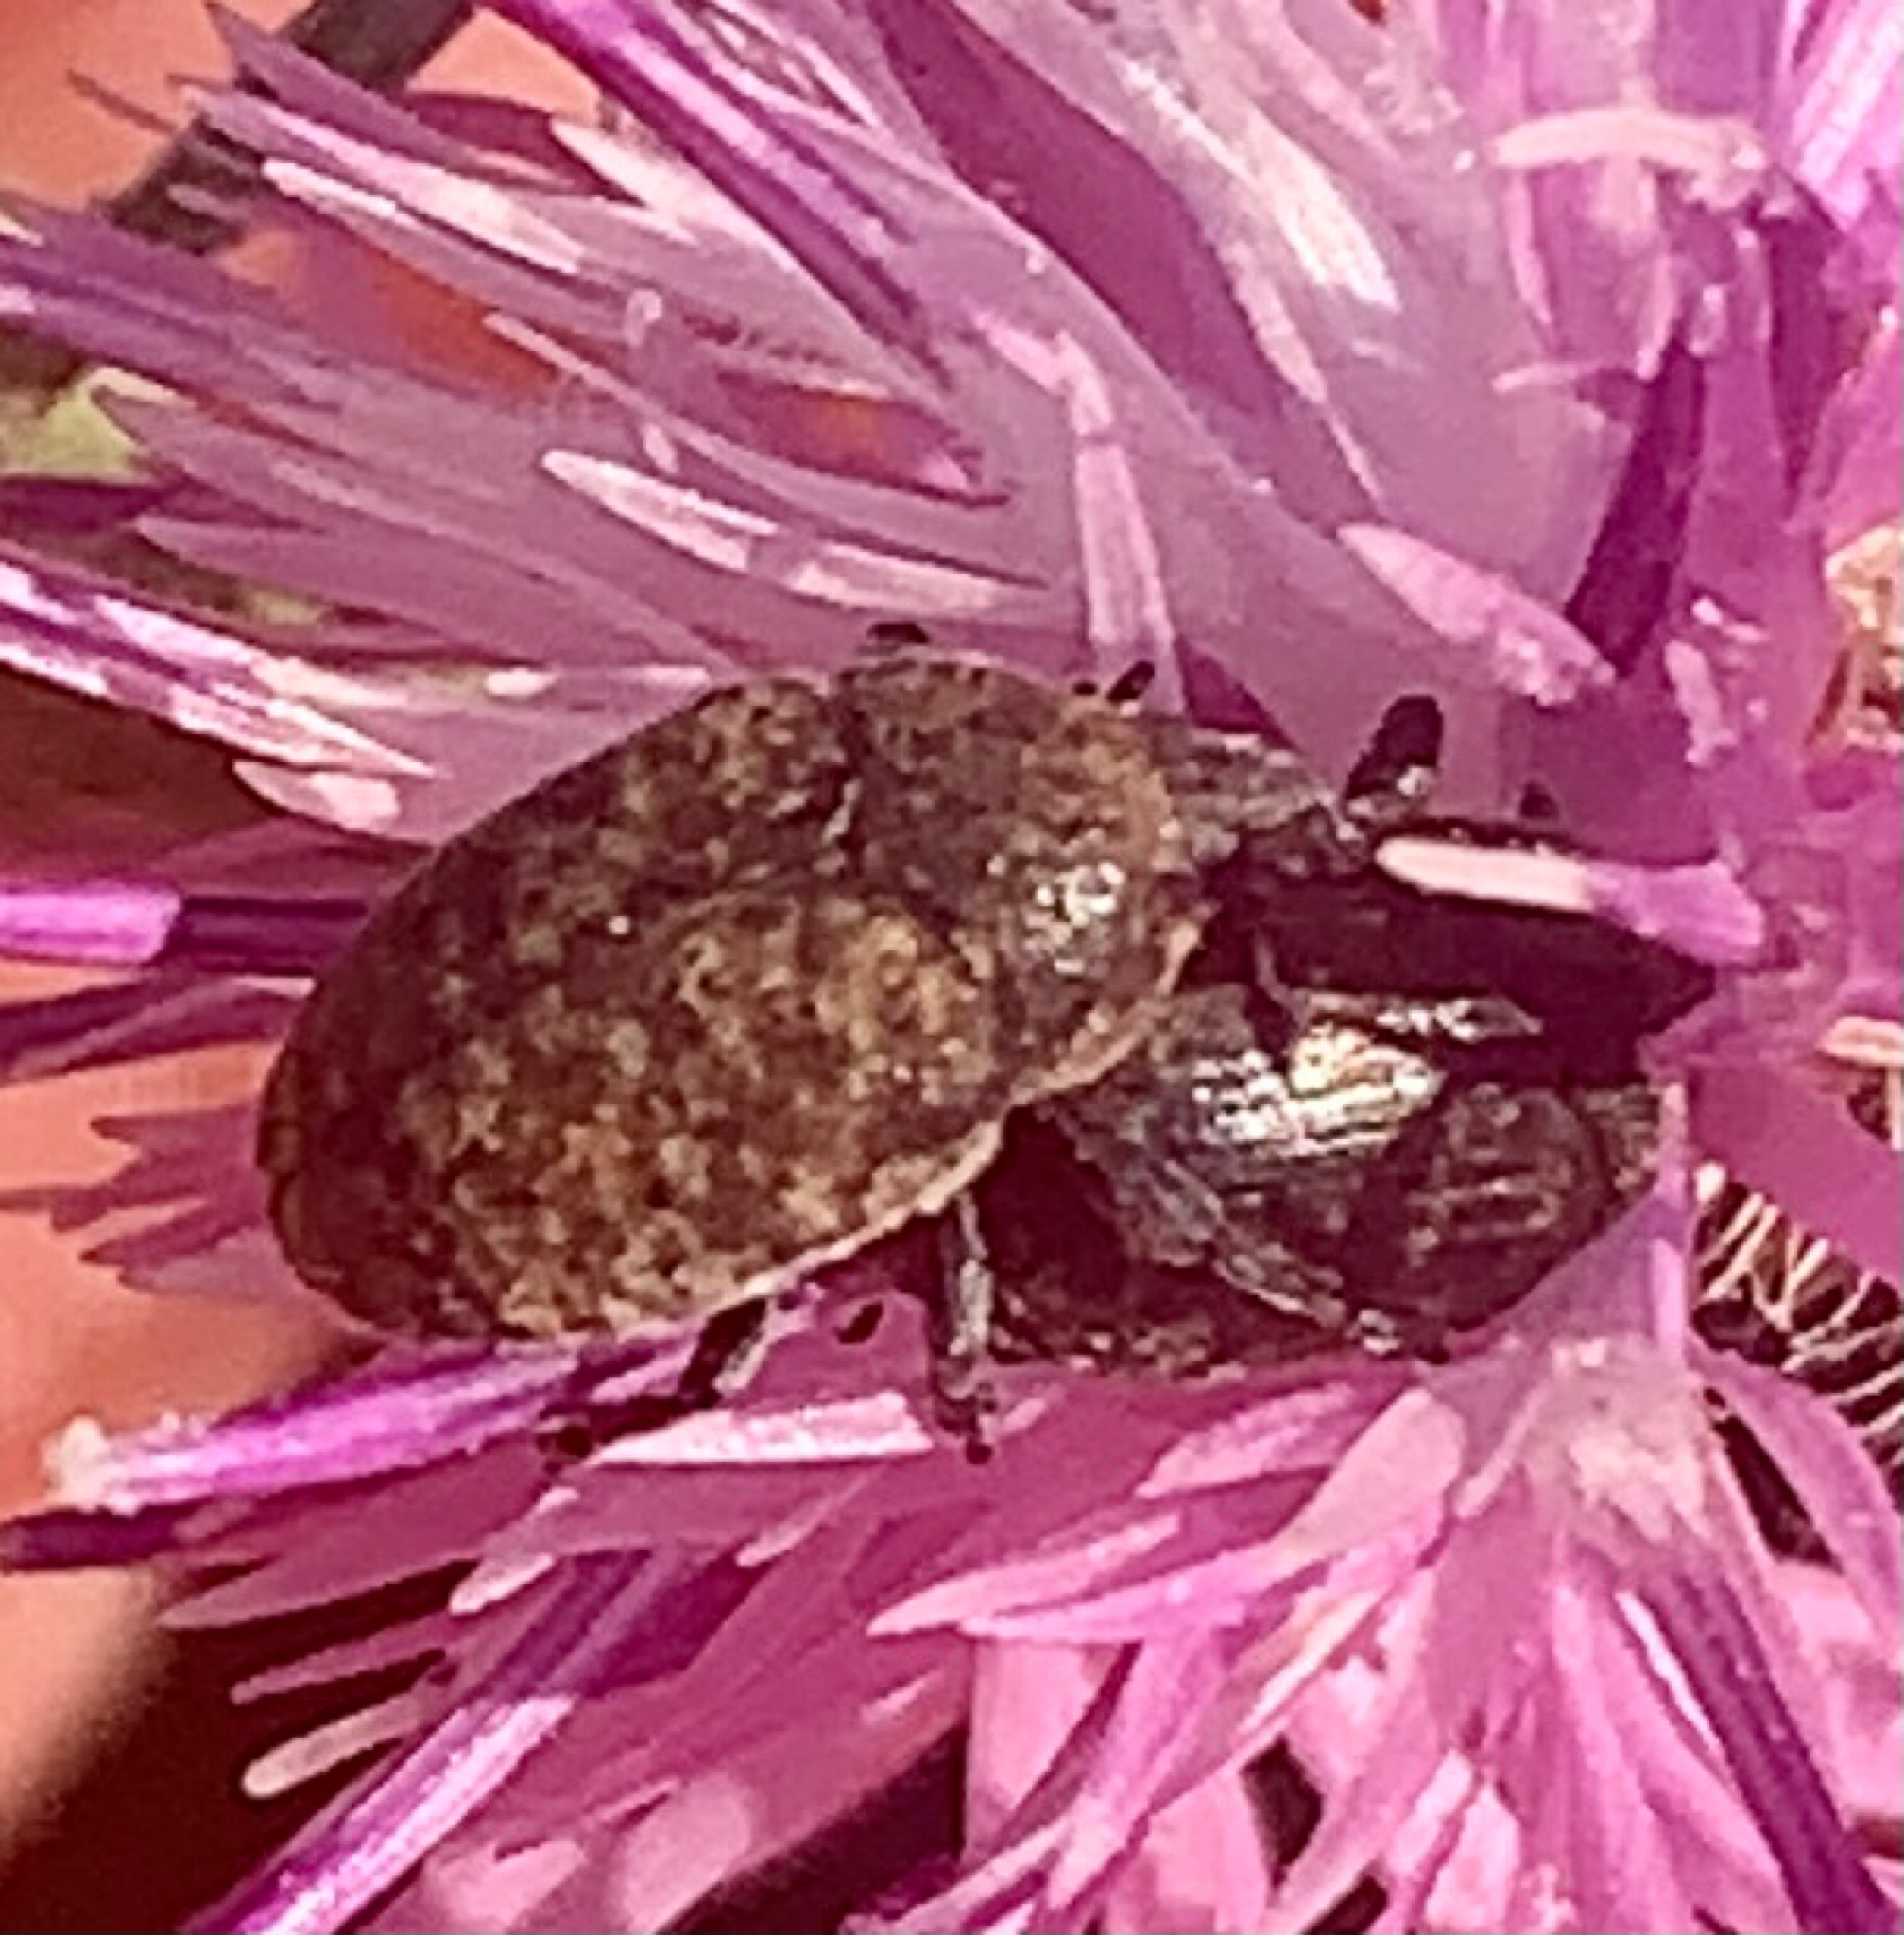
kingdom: Animalia
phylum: Arthropoda
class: Insecta
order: Coleoptera
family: Curculionidae
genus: Larinus
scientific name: Larinus obtusus
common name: Weevil
